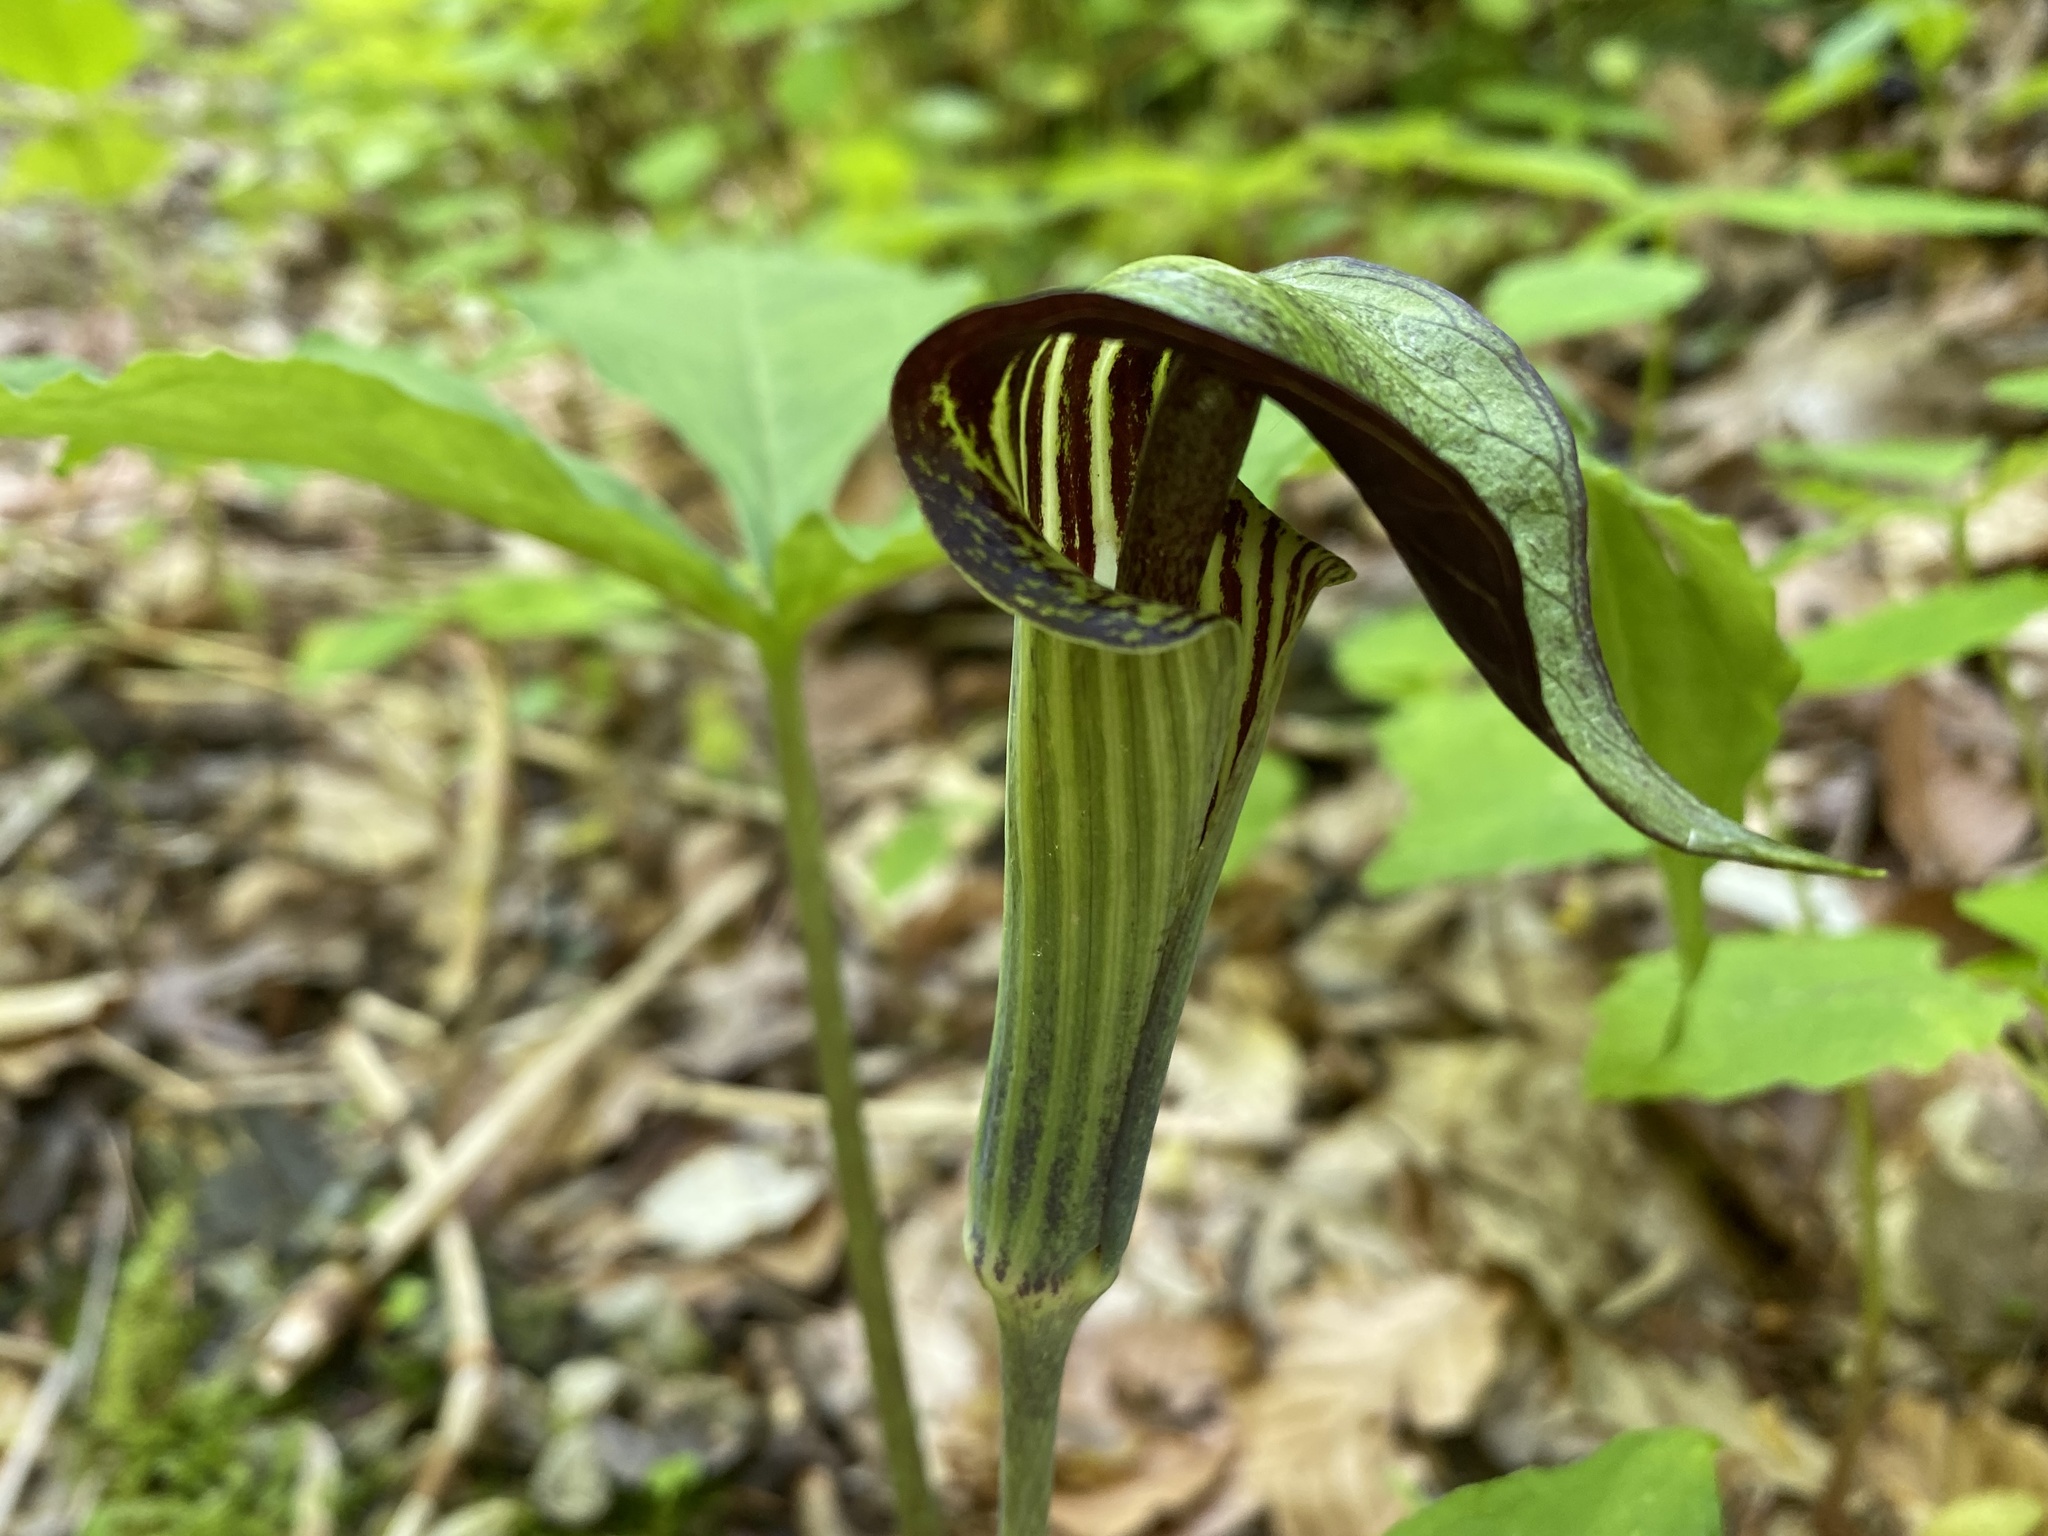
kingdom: Plantae
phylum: Tracheophyta
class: Liliopsida
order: Alismatales
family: Araceae
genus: Arisaema
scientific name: Arisaema triphyllum
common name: Jack-in-the-pulpit
